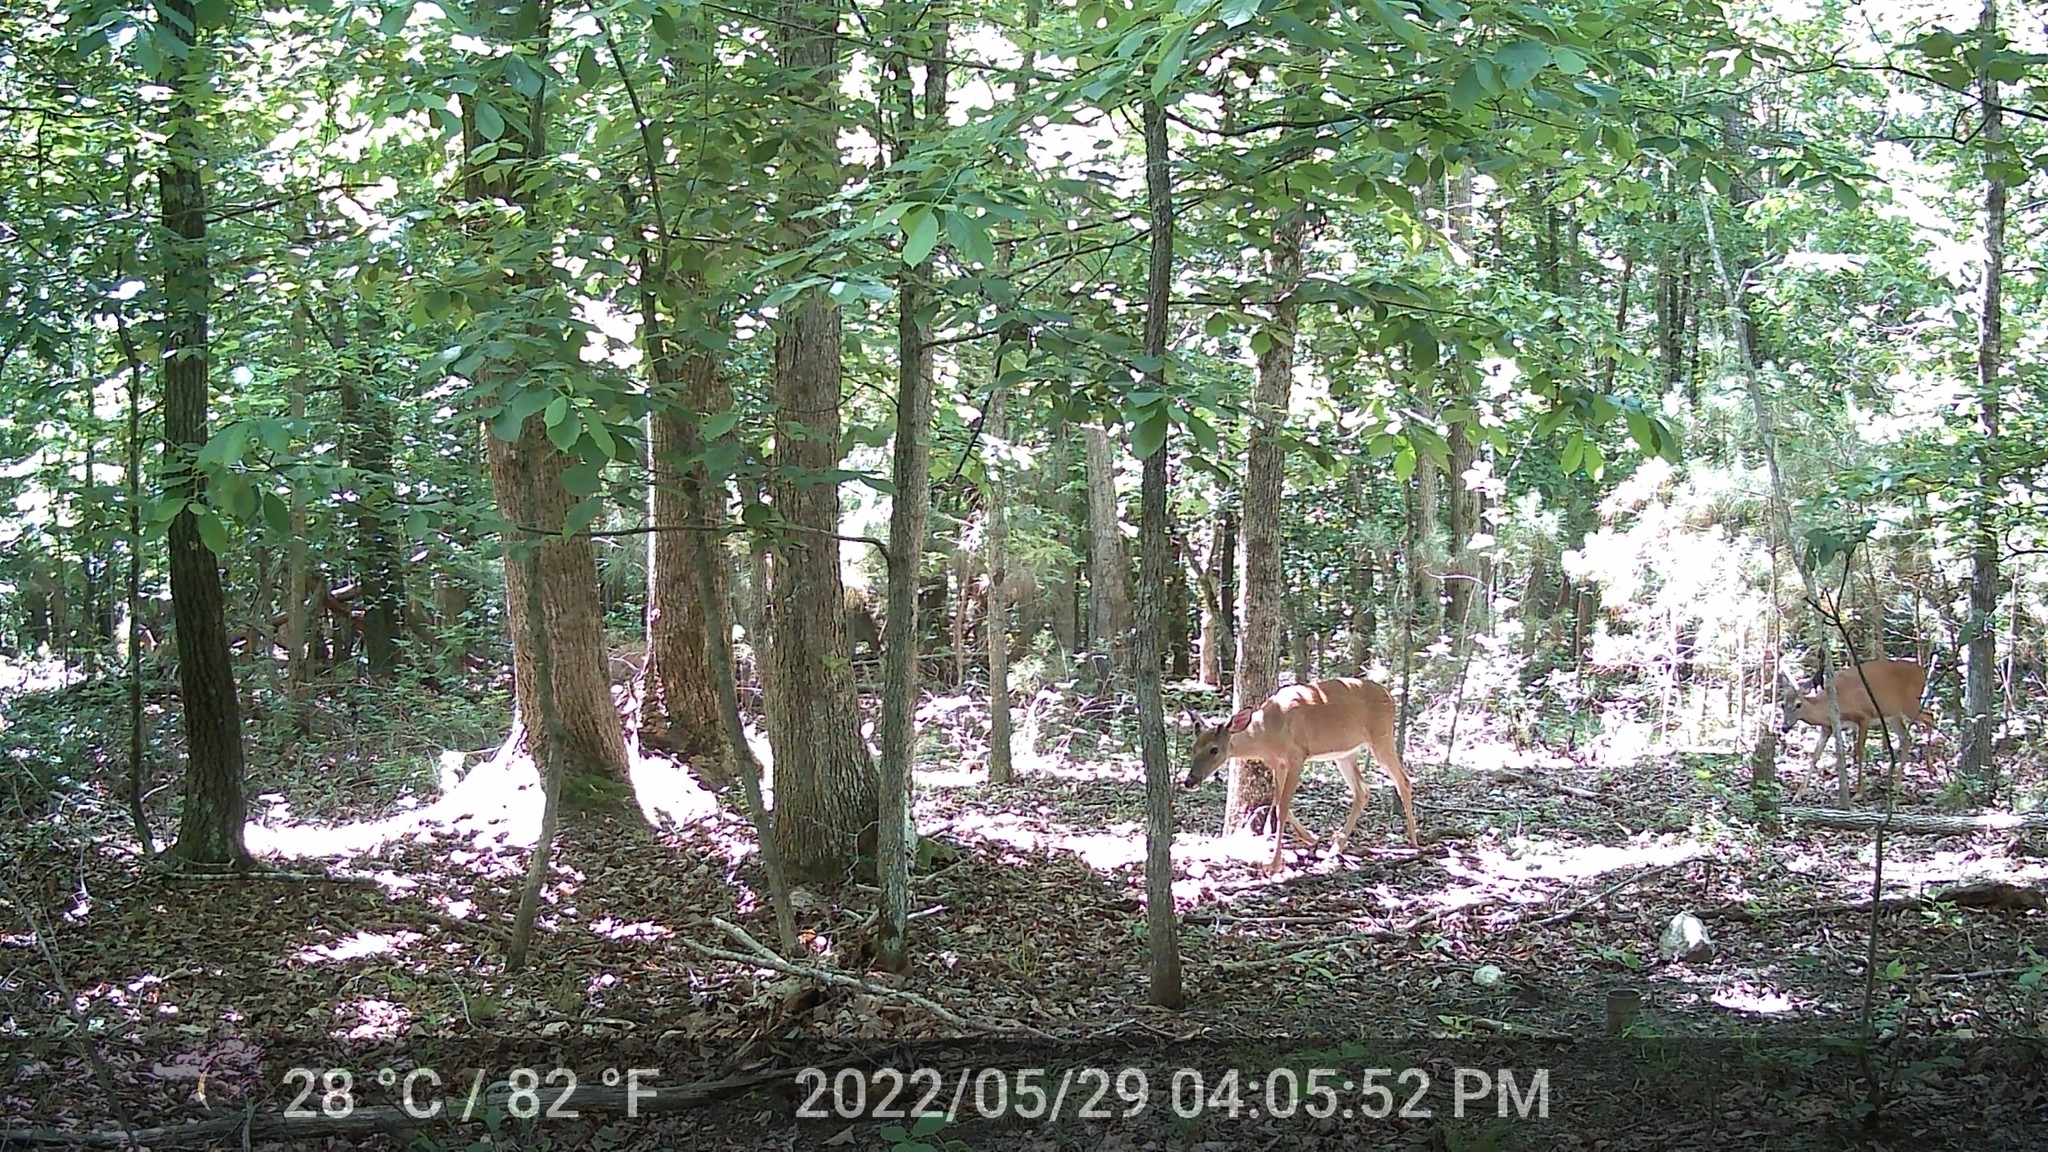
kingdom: Animalia
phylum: Chordata
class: Mammalia
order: Artiodactyla
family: Cervidae
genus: Odocoileus
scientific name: Odocoileus virginianus
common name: White-tailed deer
